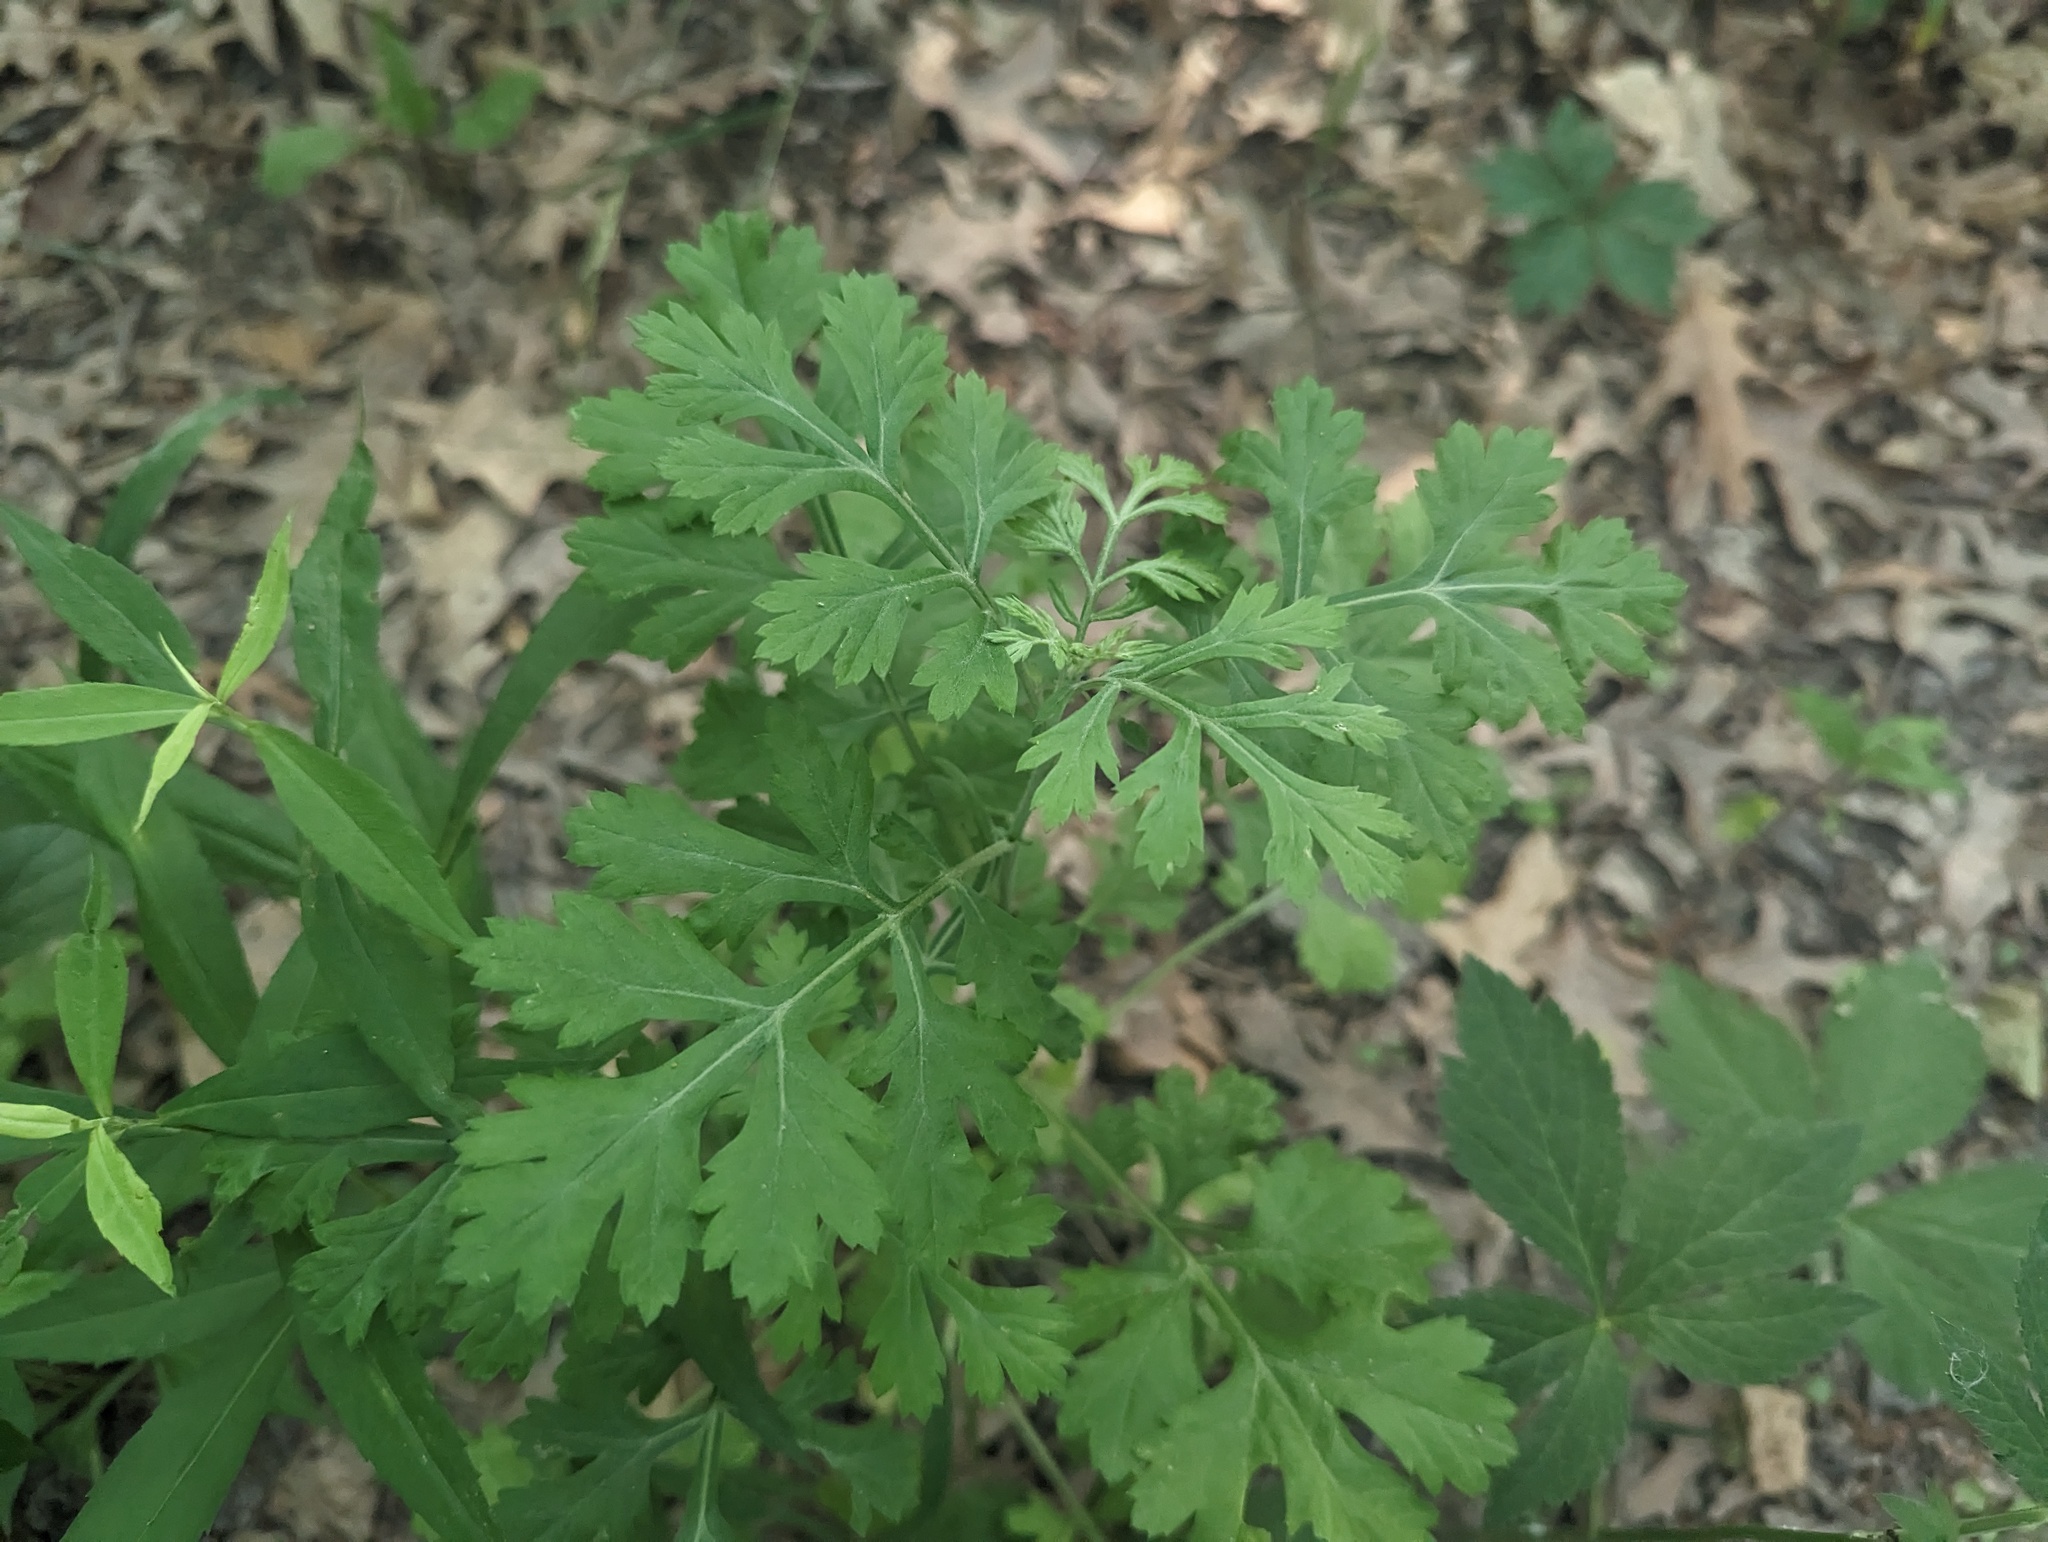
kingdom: Plantae
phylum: Tracheophyta
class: Magnoliopsida
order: Asterales
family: Asteraceae
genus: Artemisia
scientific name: Artemisia vulgaris
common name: Mugwort
